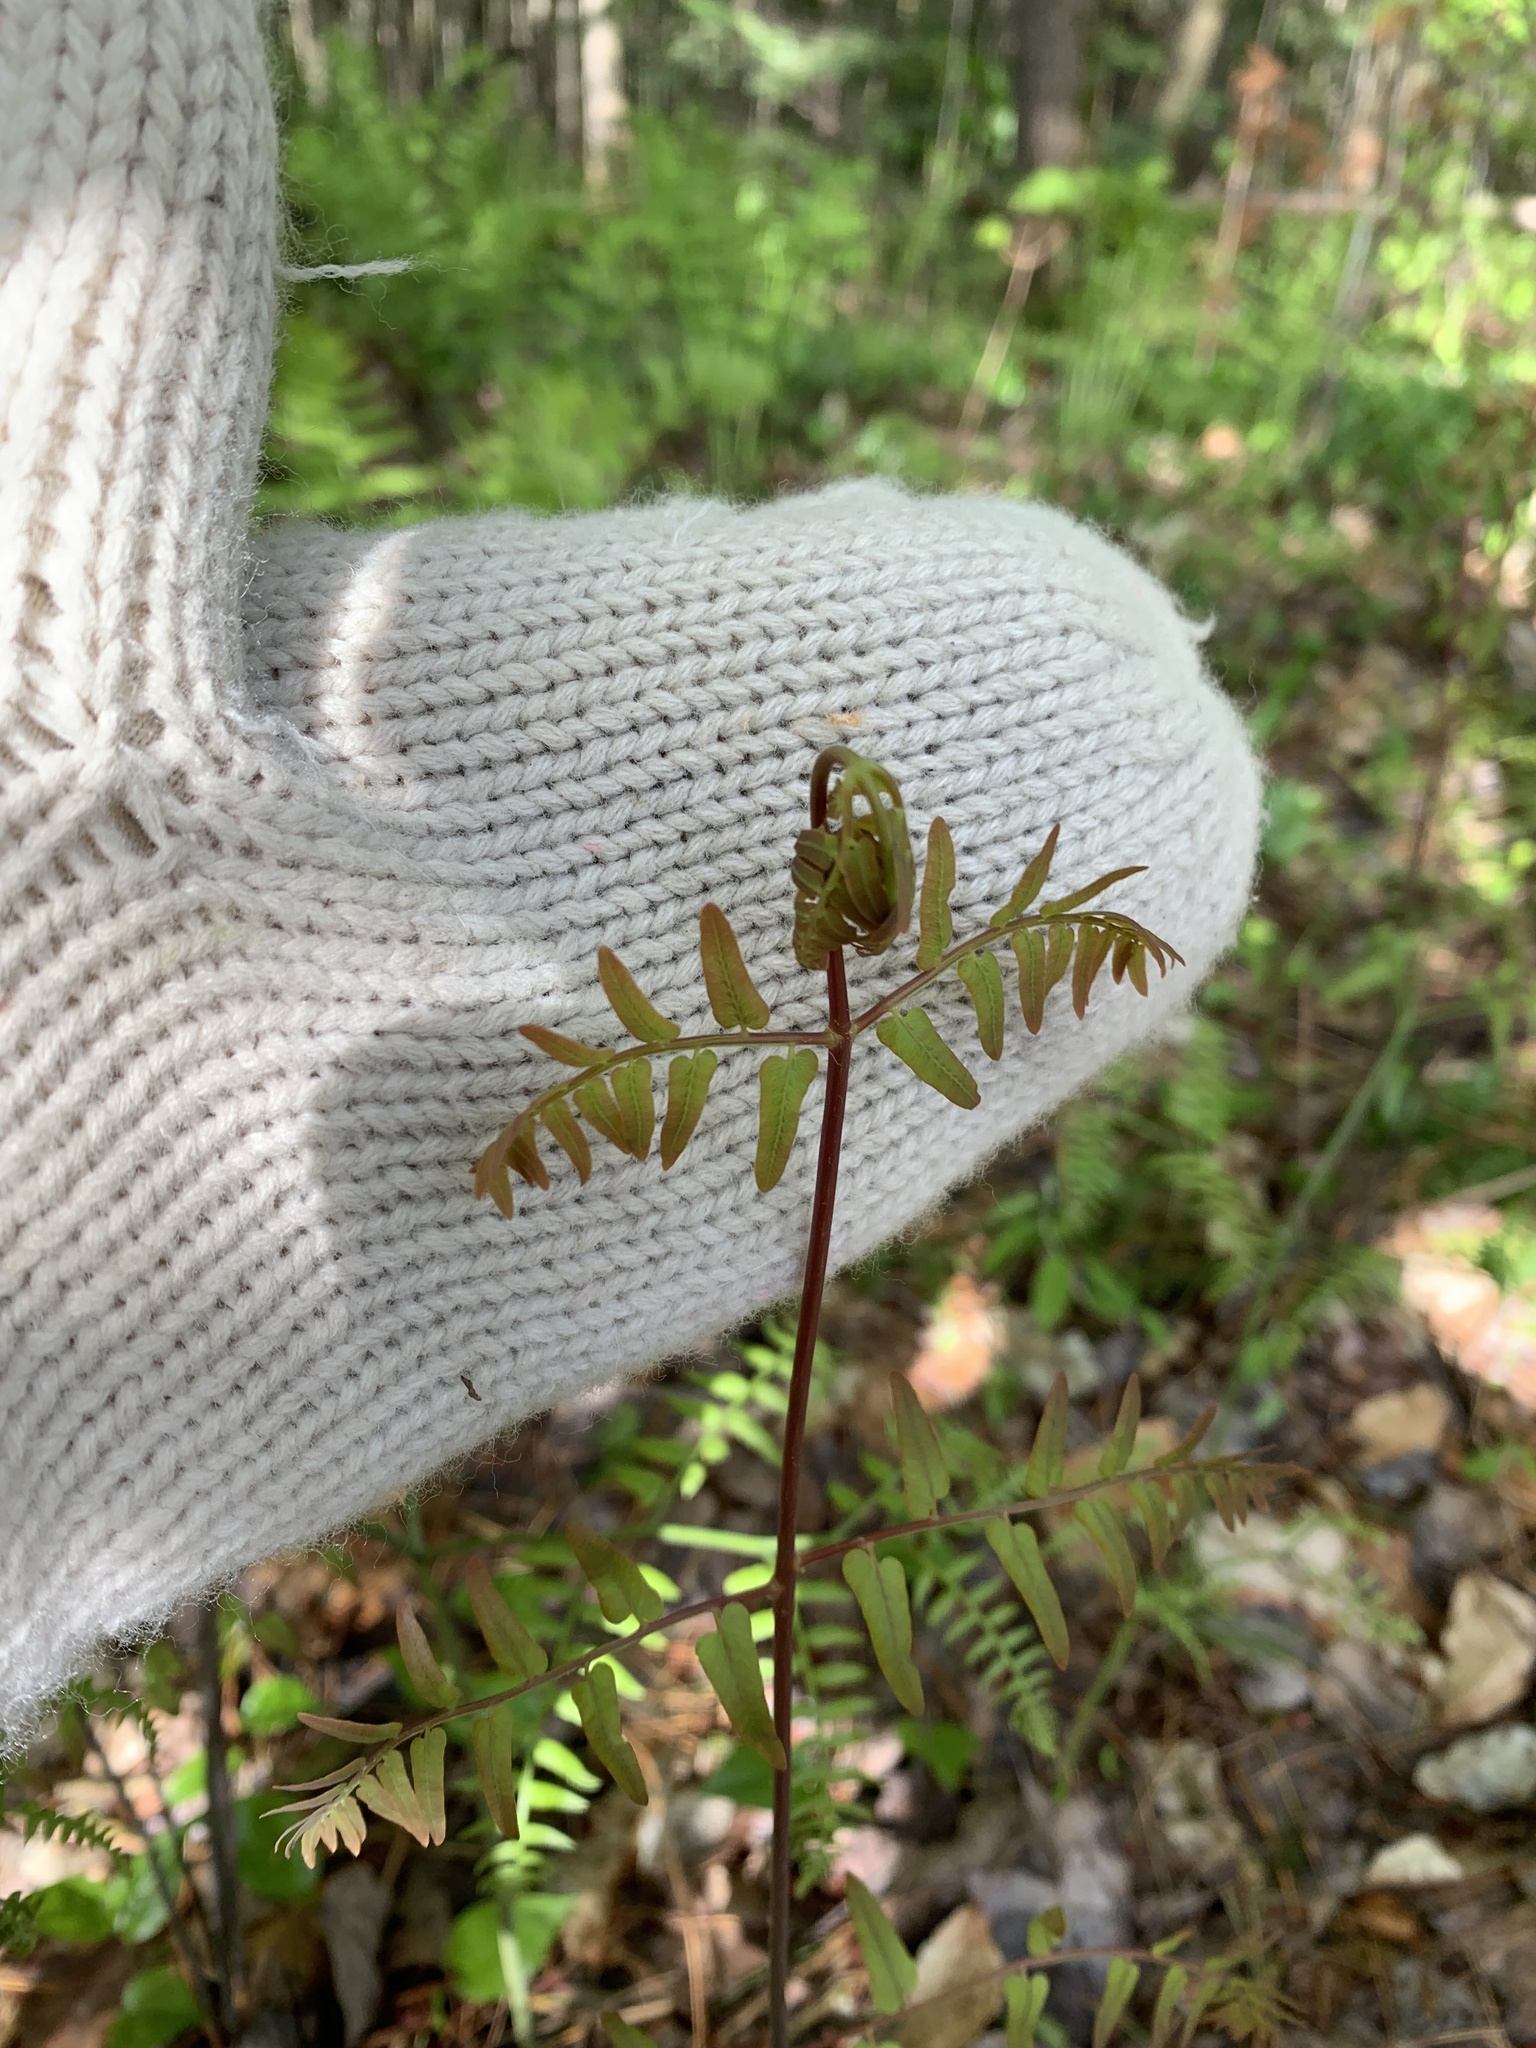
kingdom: Plantae
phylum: Tracheophyta
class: Polypodiopsida
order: Osmundales
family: Osmundaceae
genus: Osmunda
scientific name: Osmunda spectabilis
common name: American royal fern
